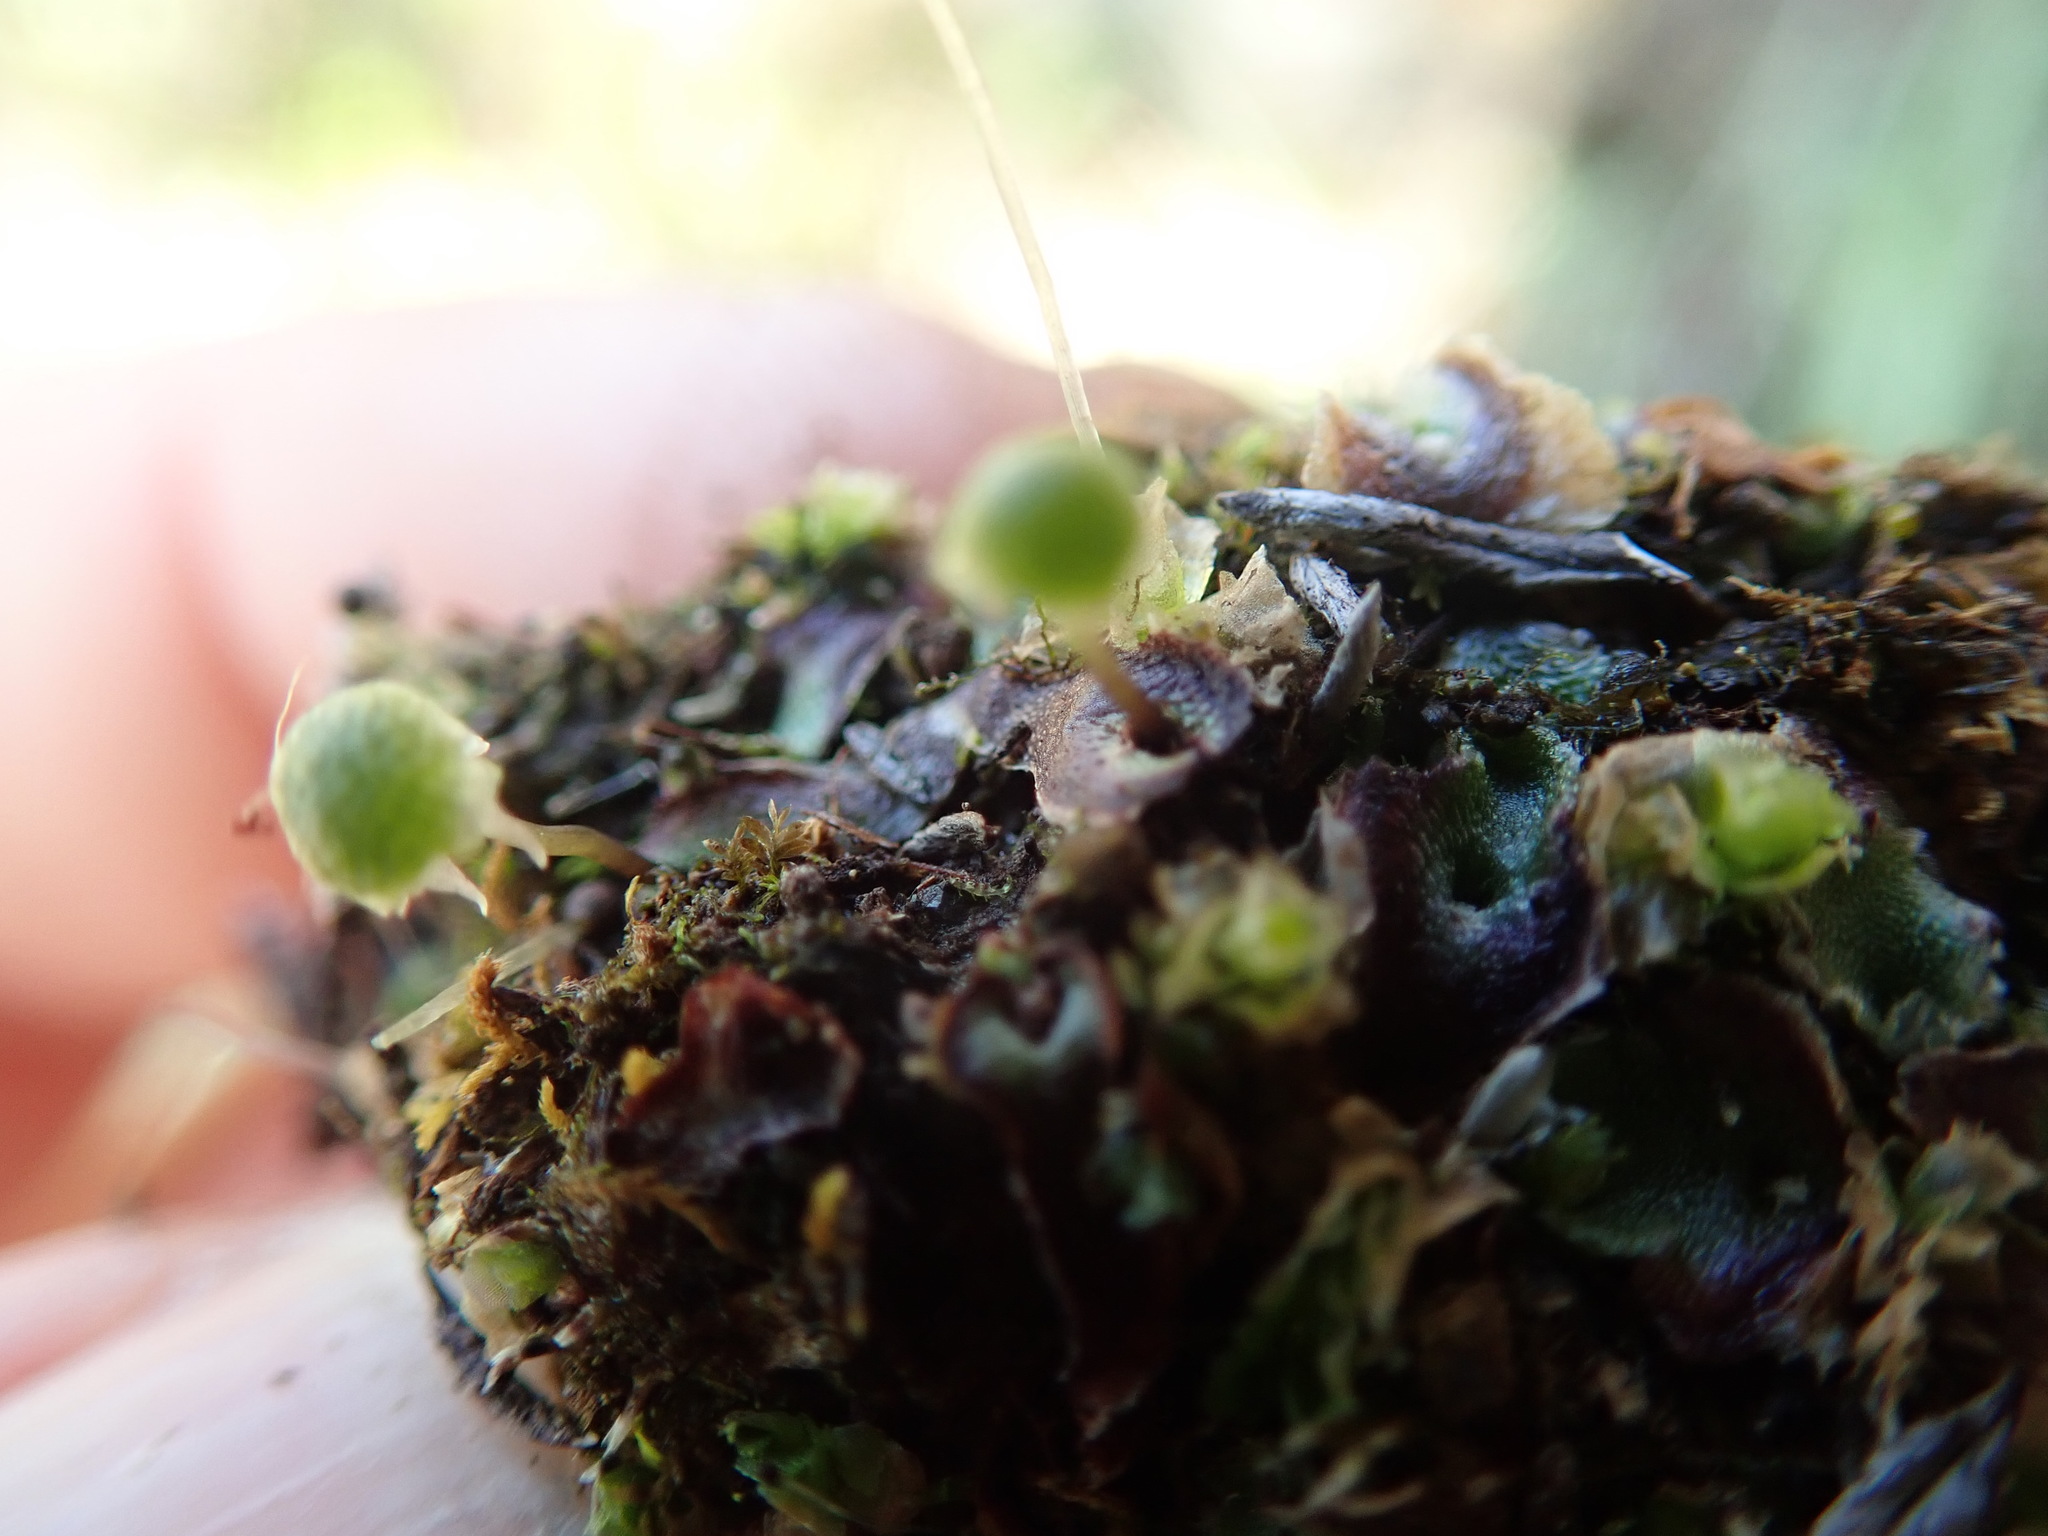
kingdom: Plantae
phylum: Marchantiophyta
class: Marchantiopsida
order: Marchantiales
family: Aytoniaceae
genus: Mannia
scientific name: Mannia gracilis
